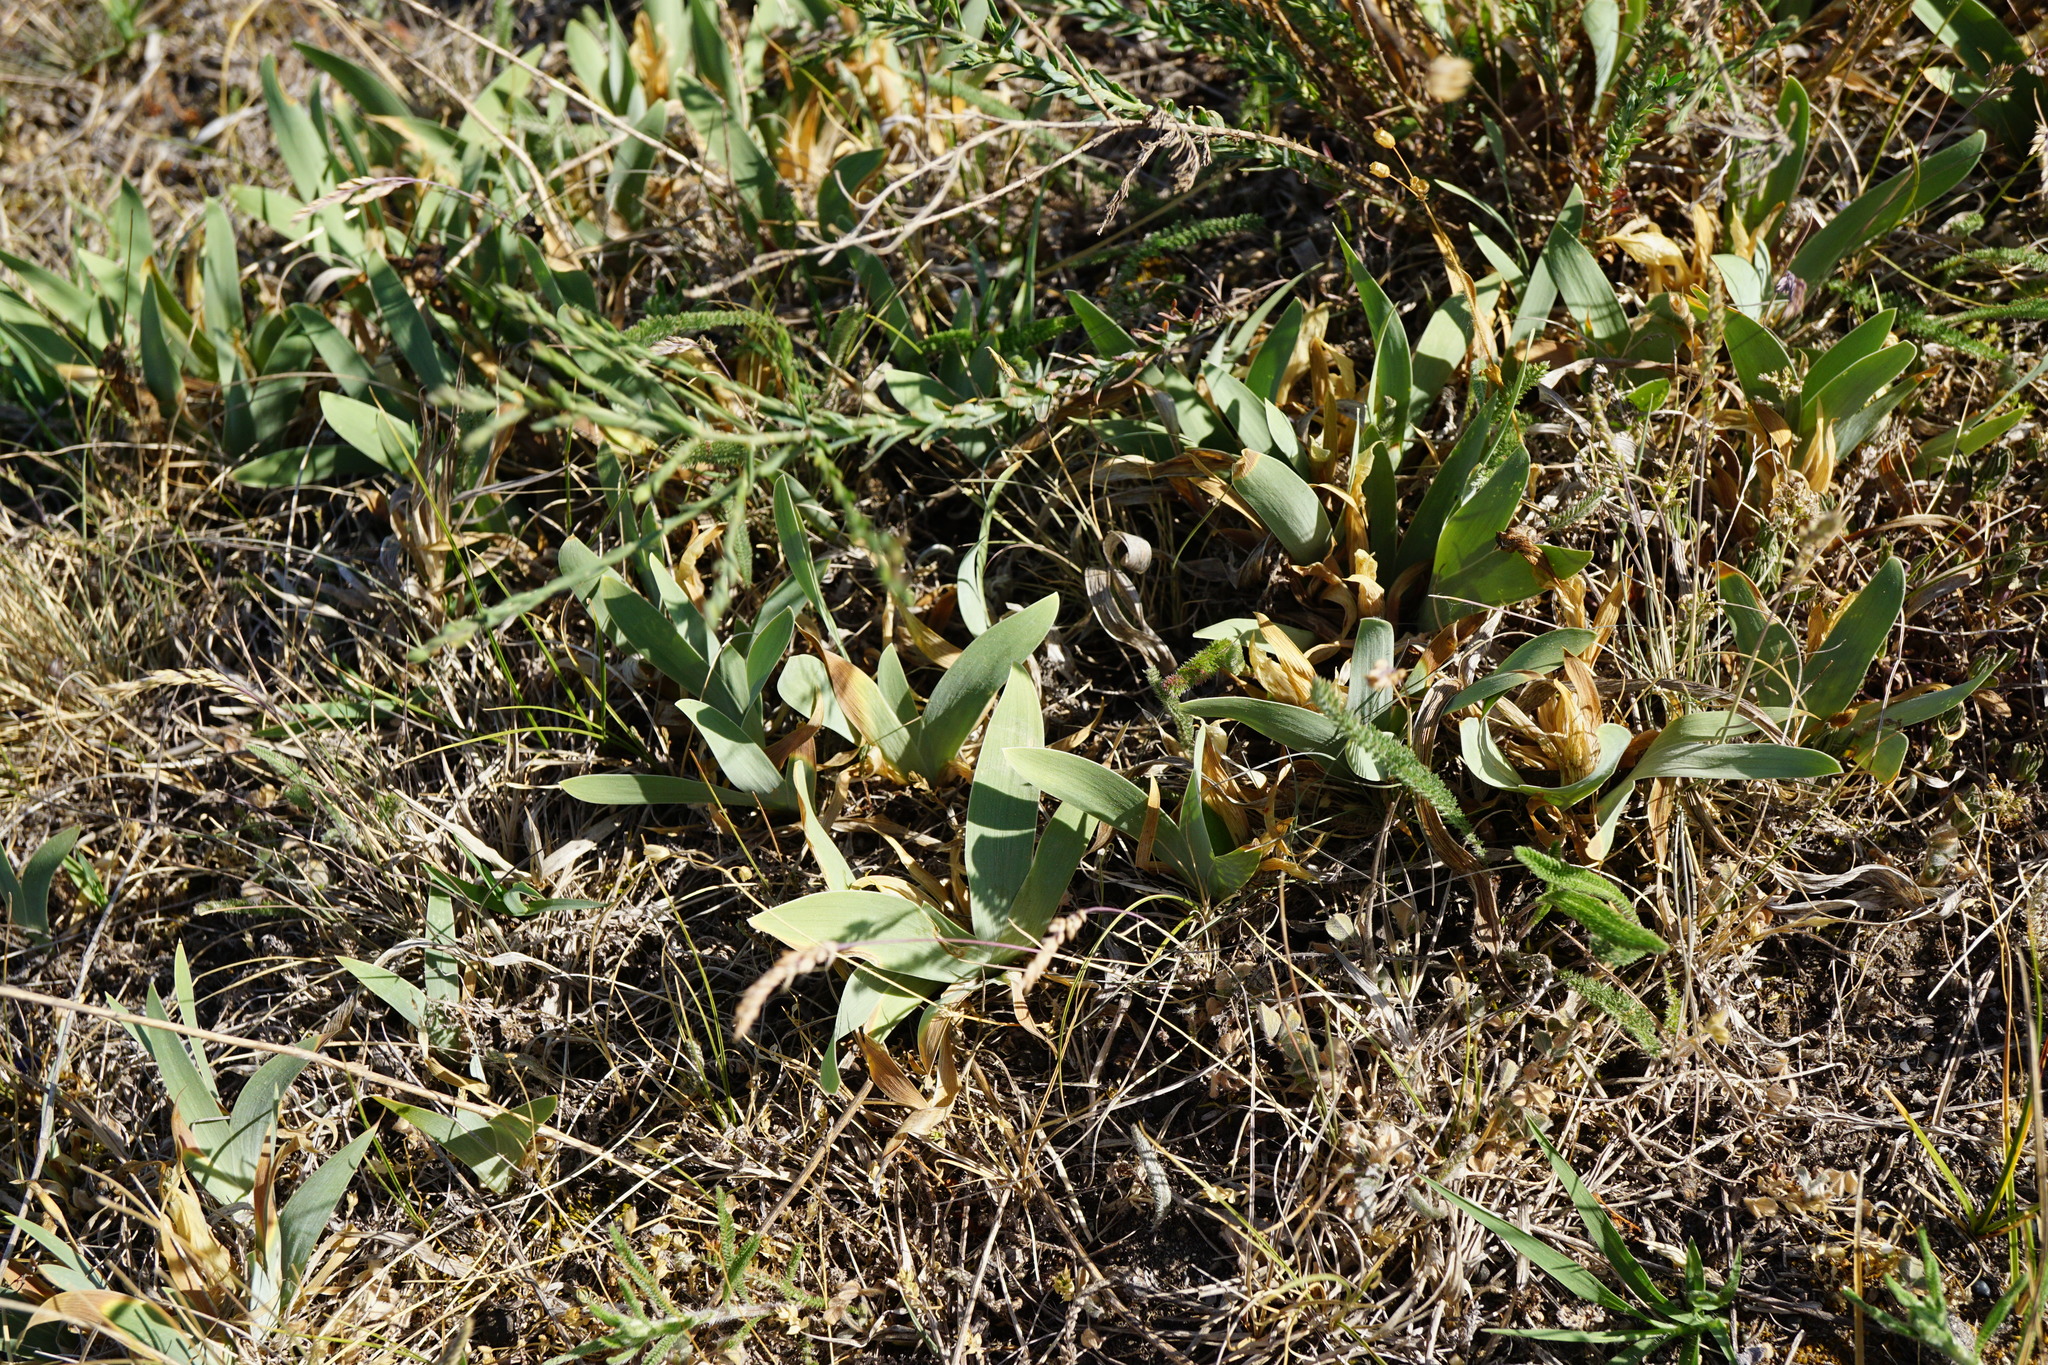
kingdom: Plantae
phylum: Tracheophyta
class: Liliopsida
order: Asparagales
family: Iridaceae
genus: Iris
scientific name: Iris pumila
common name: Dwarf iris
